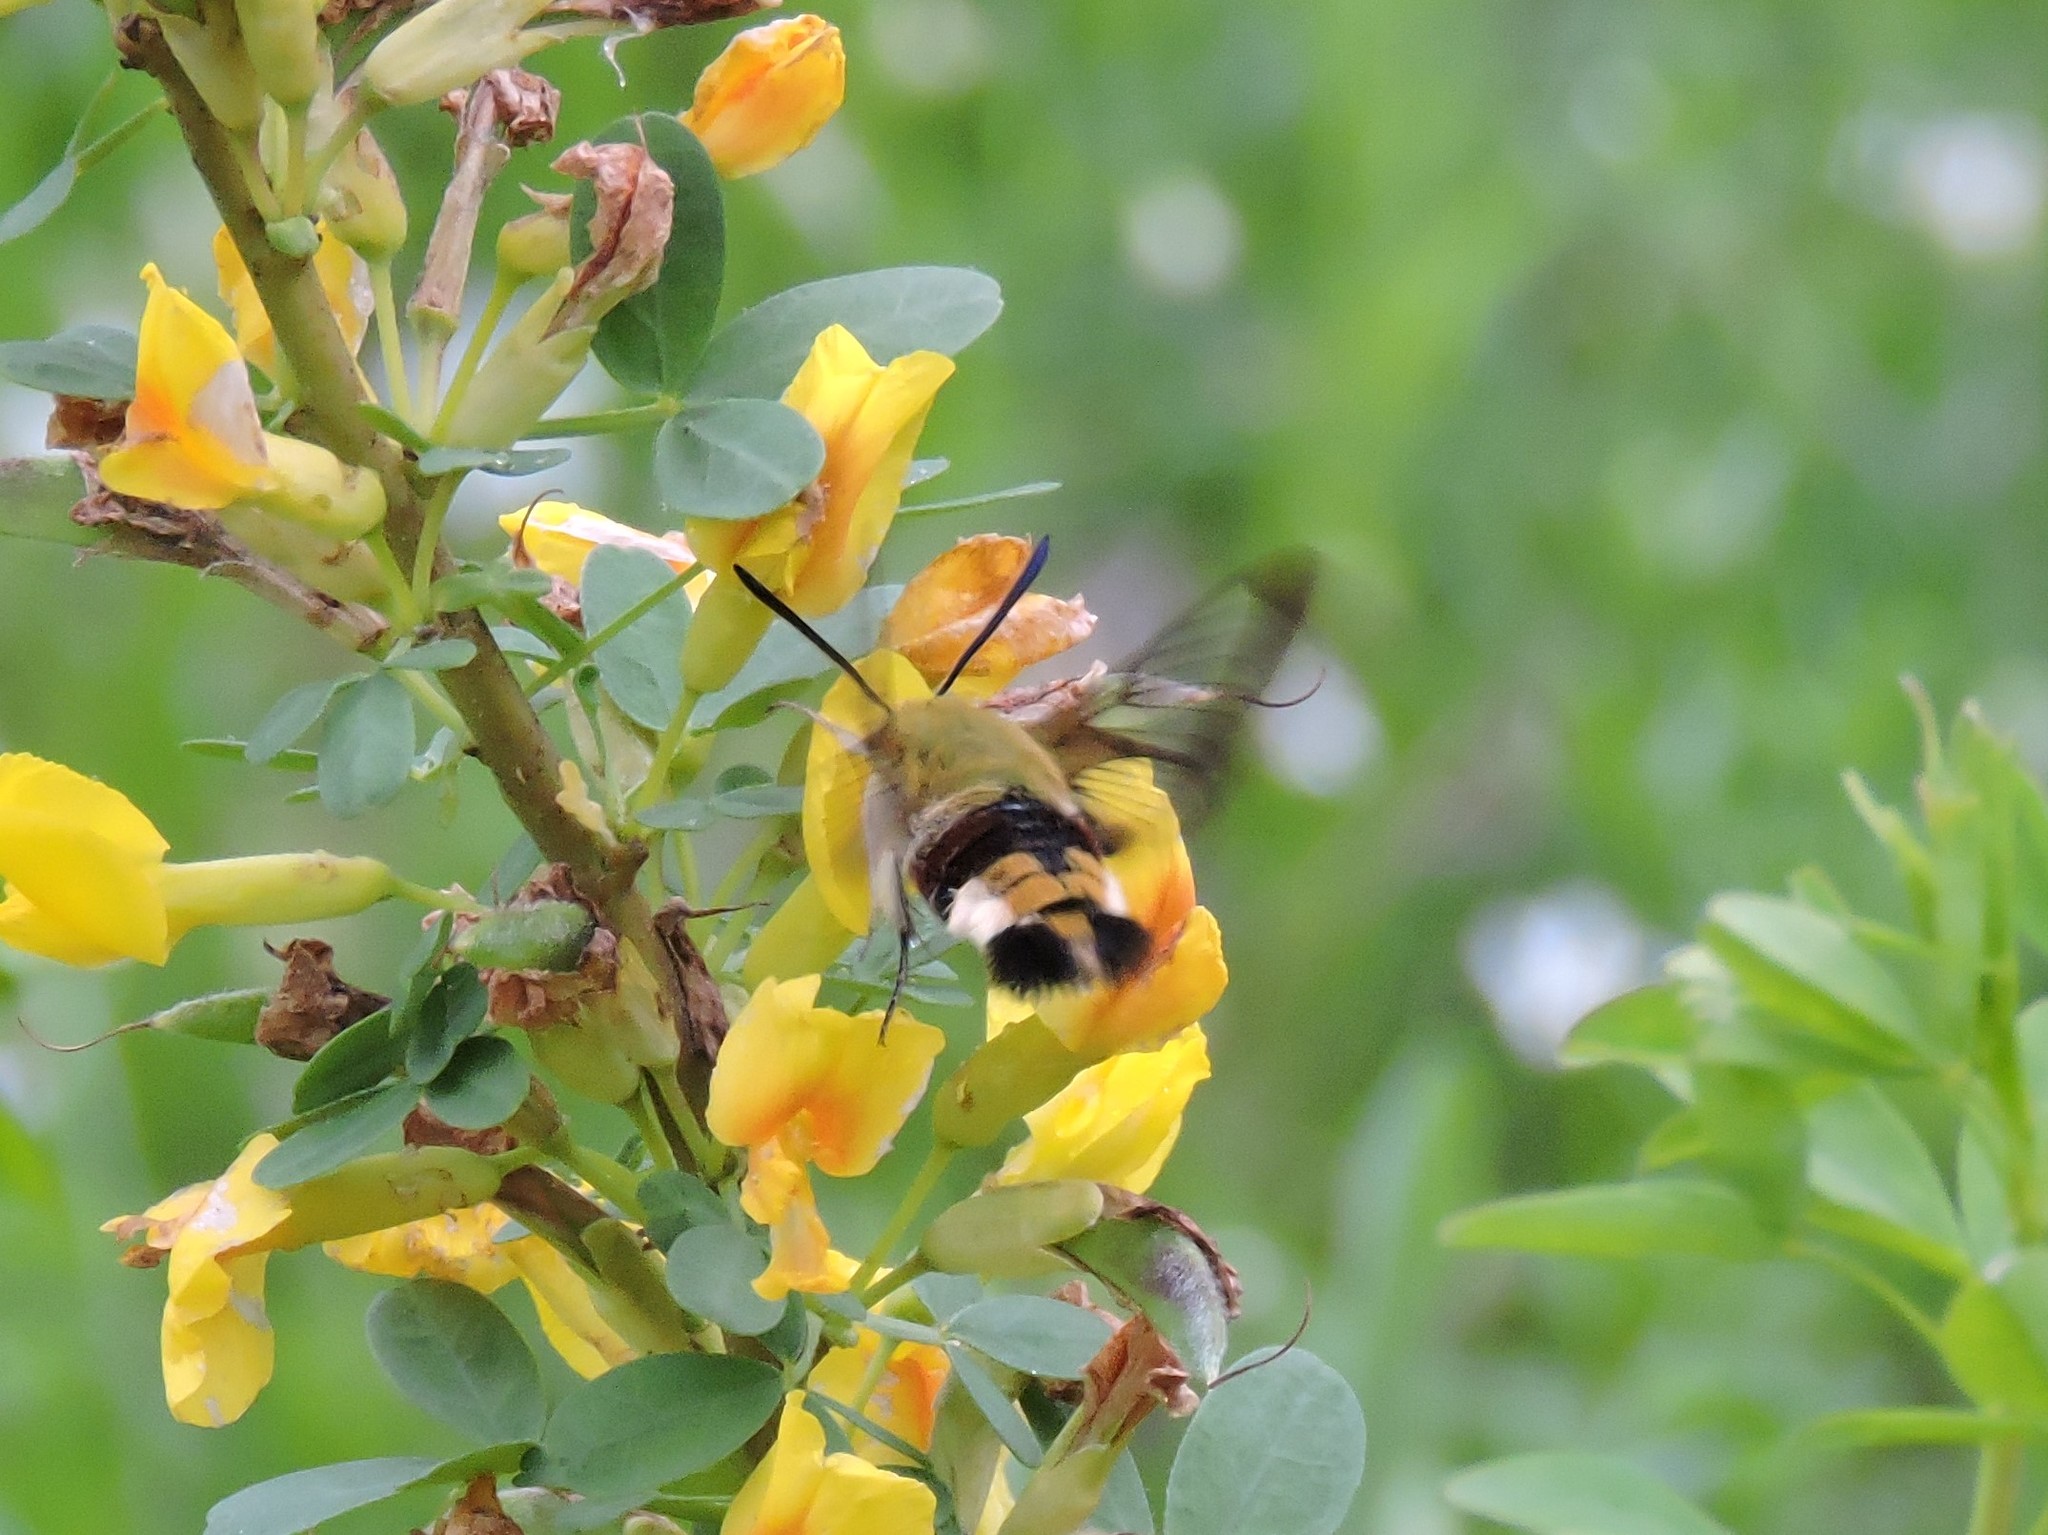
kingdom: Animalia
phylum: Arthropoda
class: Insecta
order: Lepidoptera
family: Sphingidae
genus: Hemaris
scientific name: Hemaris fuciformis
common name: Broad-bordered bee hawk-moth
